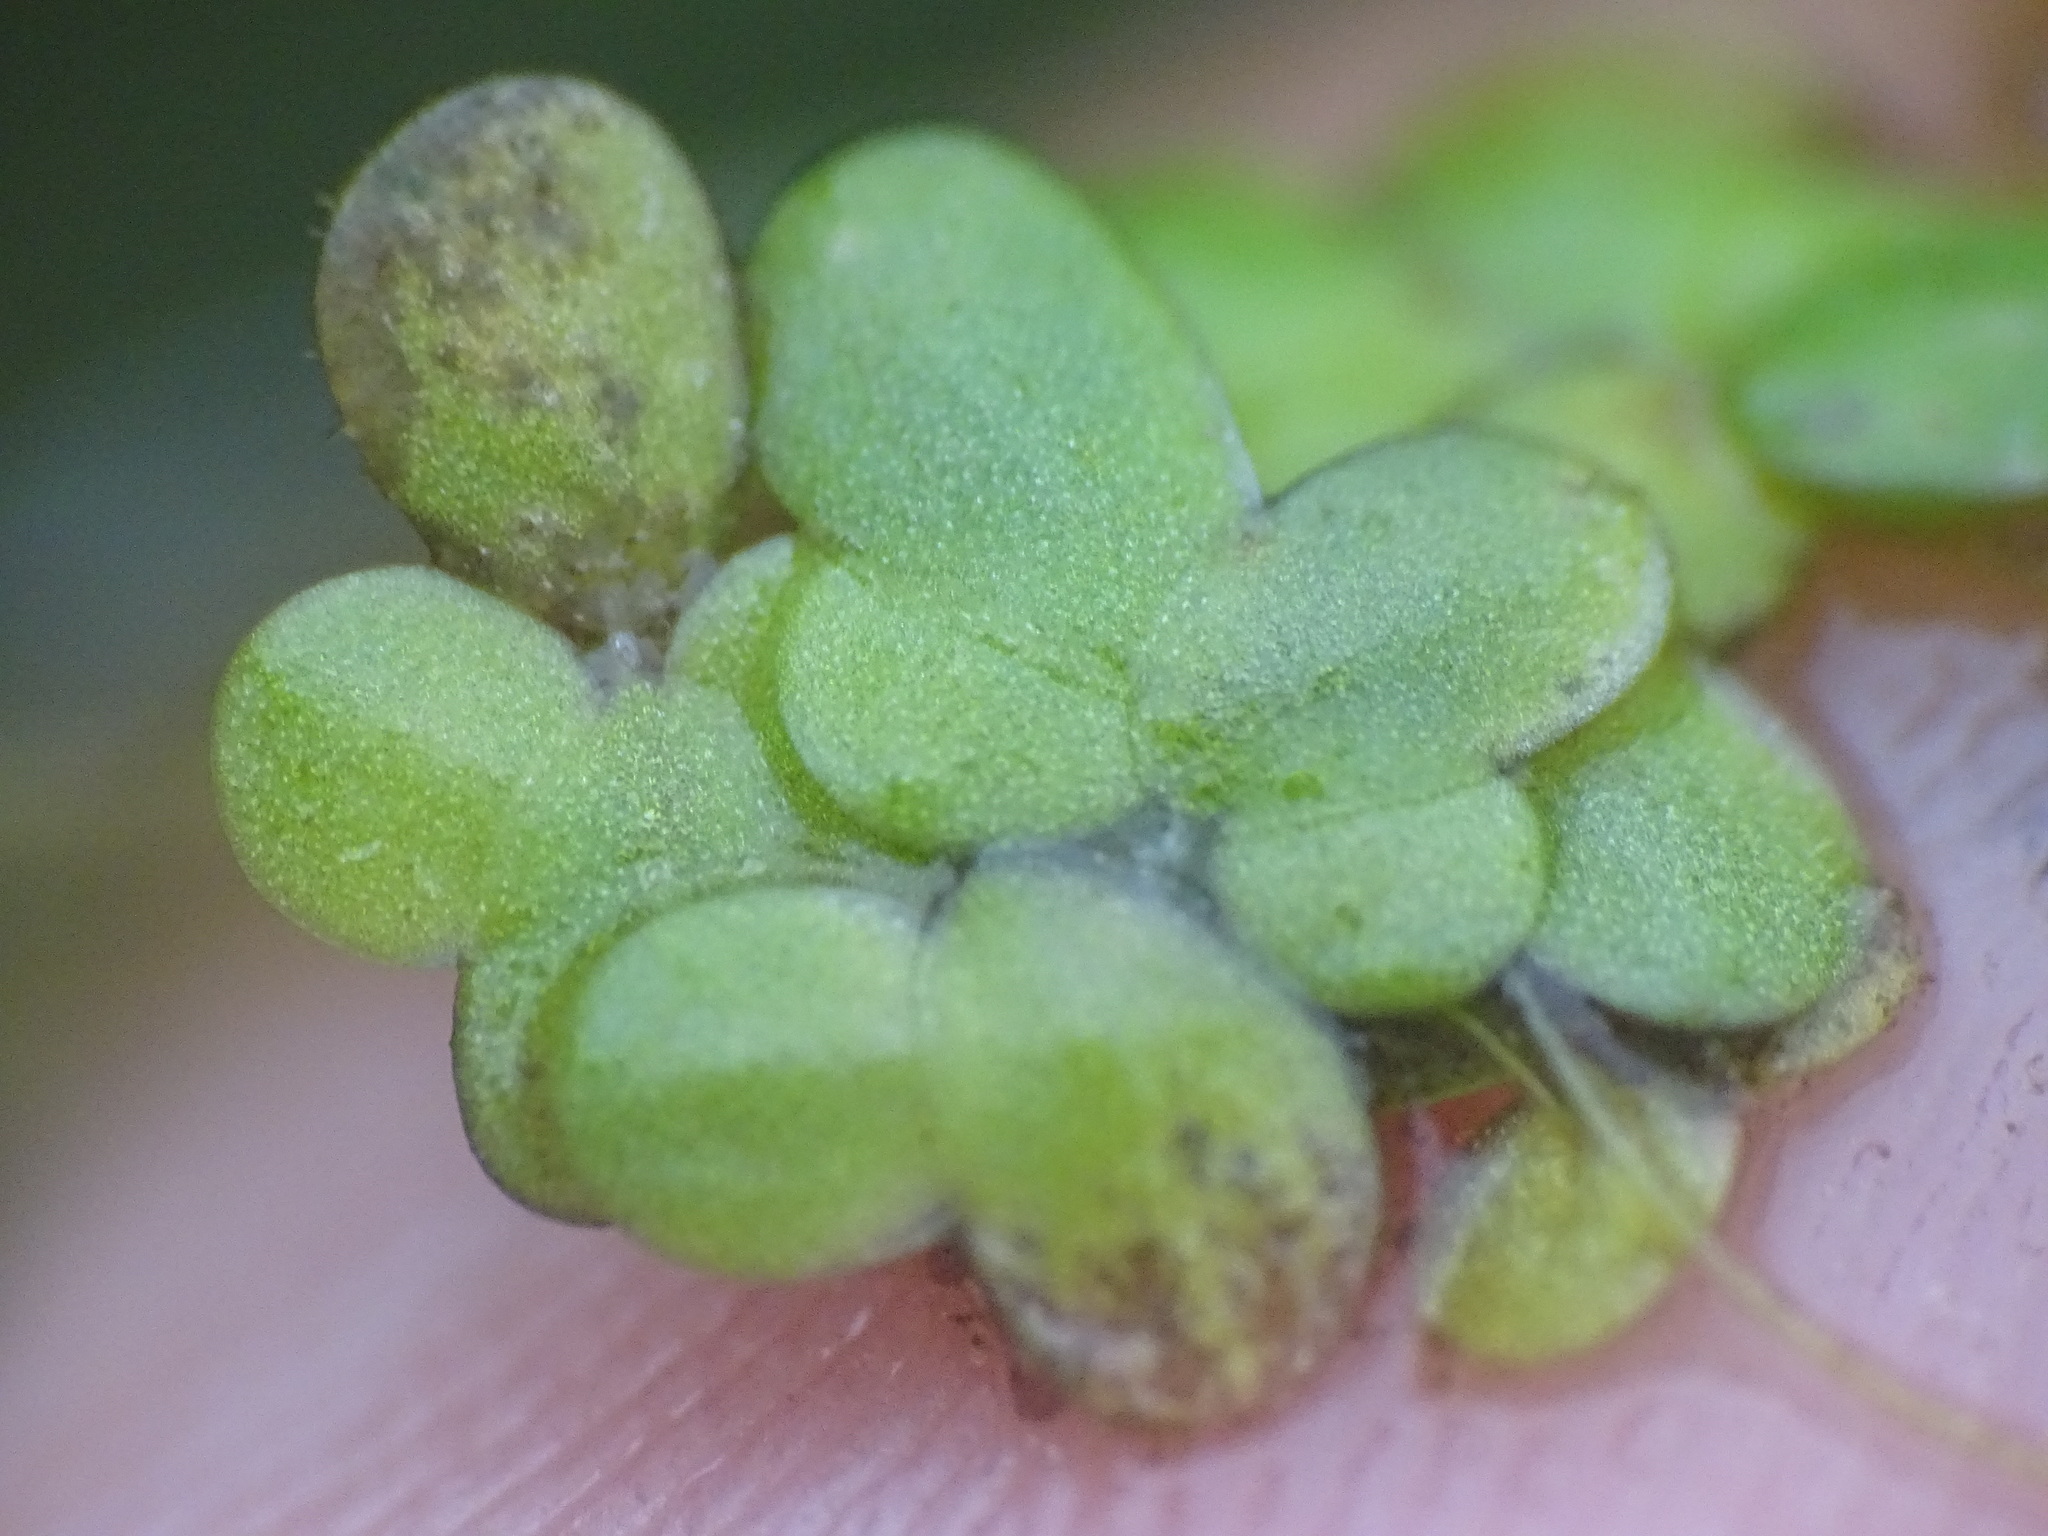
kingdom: Plantae
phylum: Tracheophyta
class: Liliopsida
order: Alismatales
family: Araceae
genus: Lemna
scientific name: Lemna minor
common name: Common duckweed
